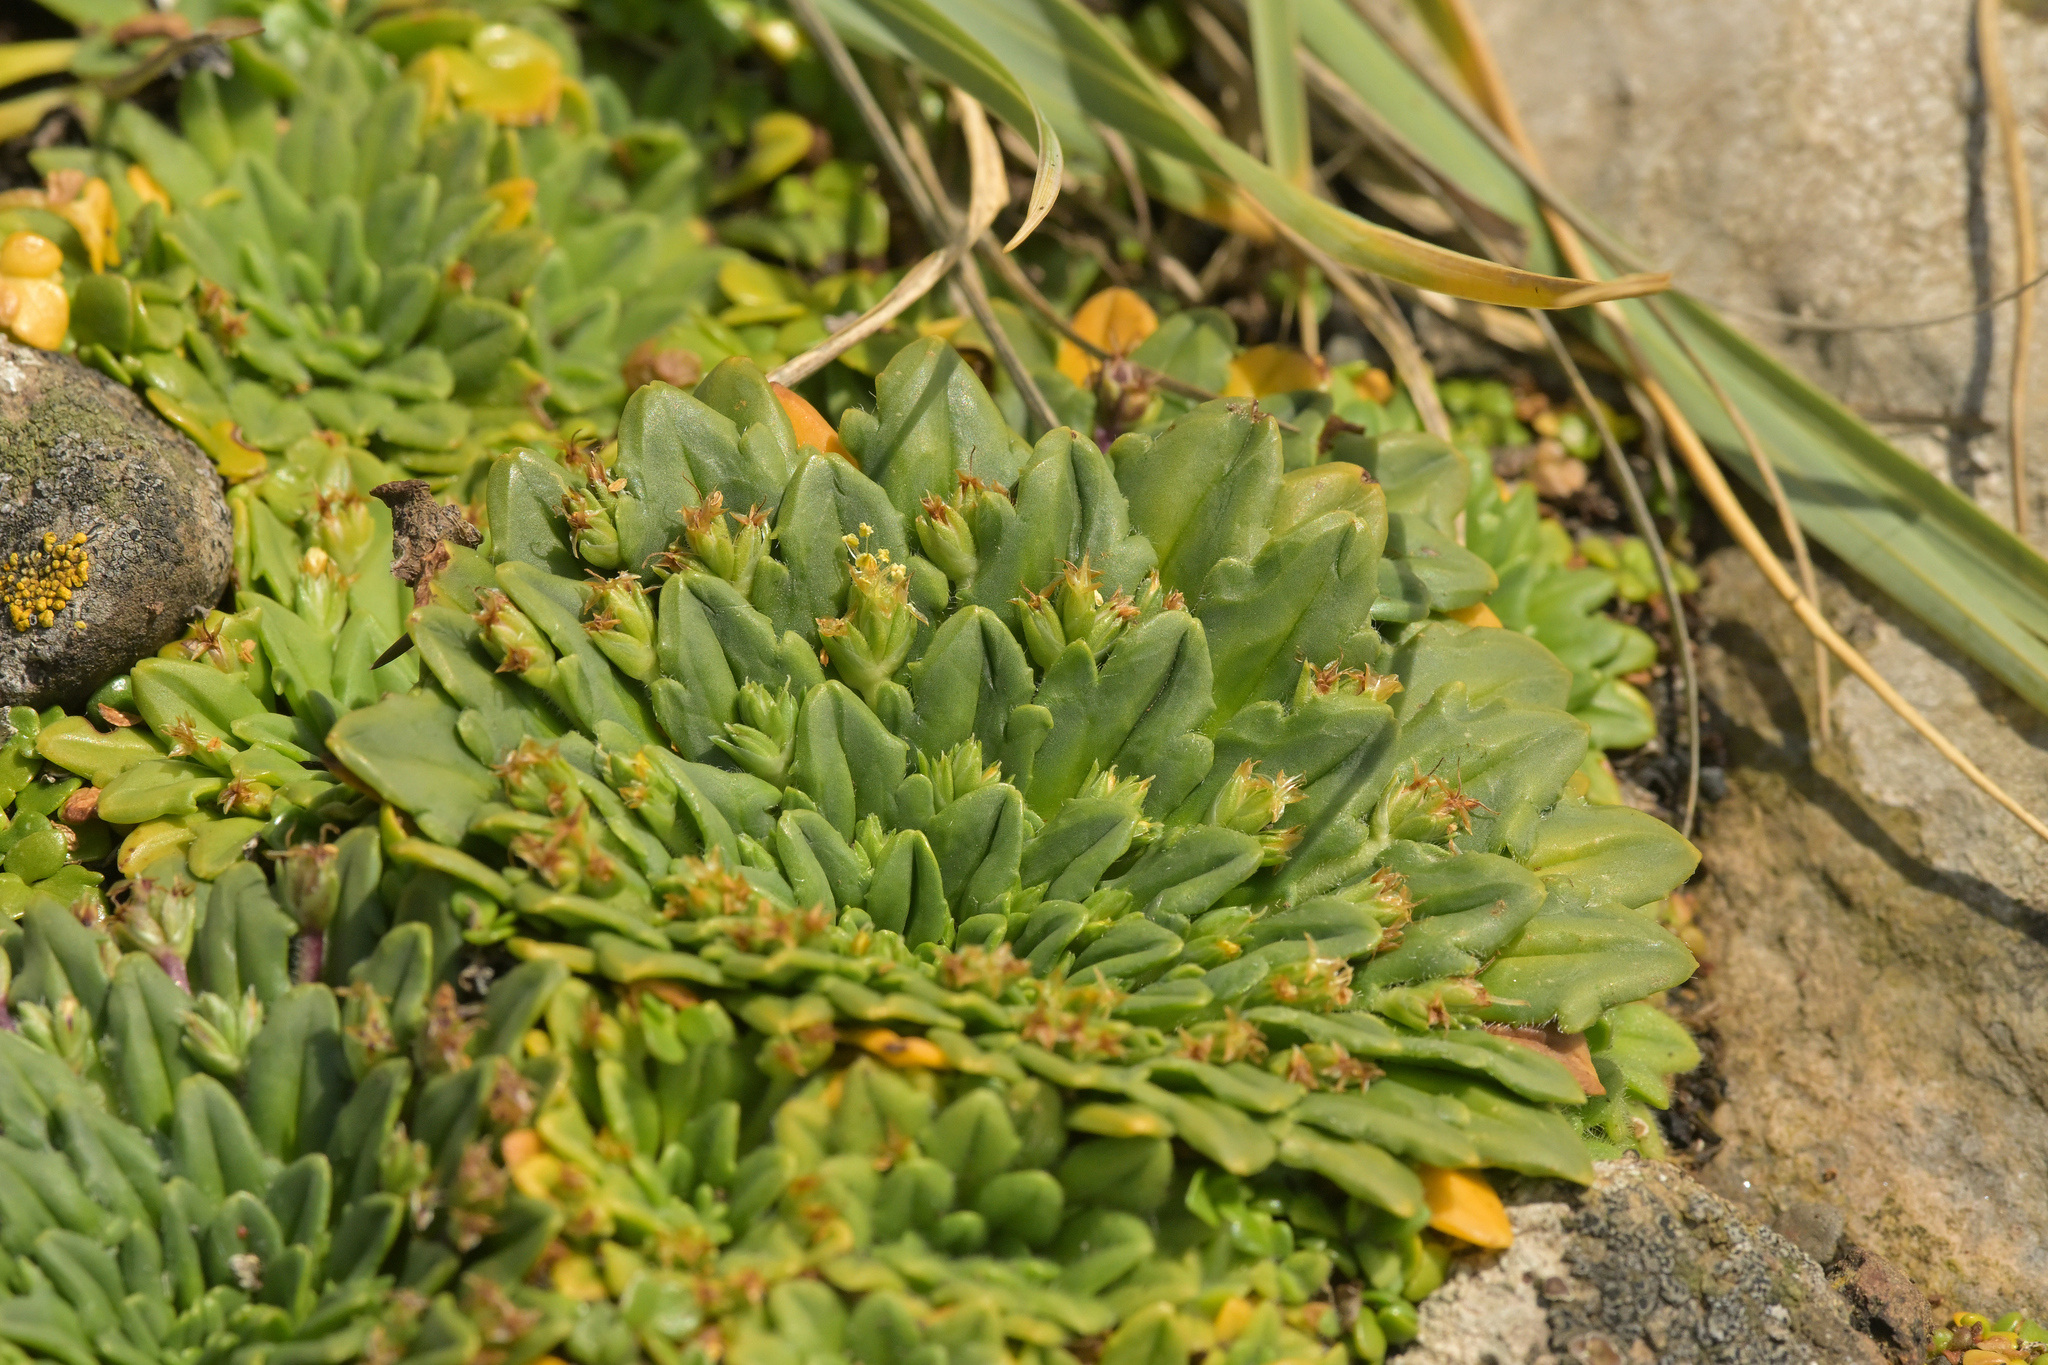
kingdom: Plantae
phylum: Tracheophyta
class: Magnoliopsida
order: Lamiales
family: Plantaginaceae
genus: Plantago
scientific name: Plantago brownii
